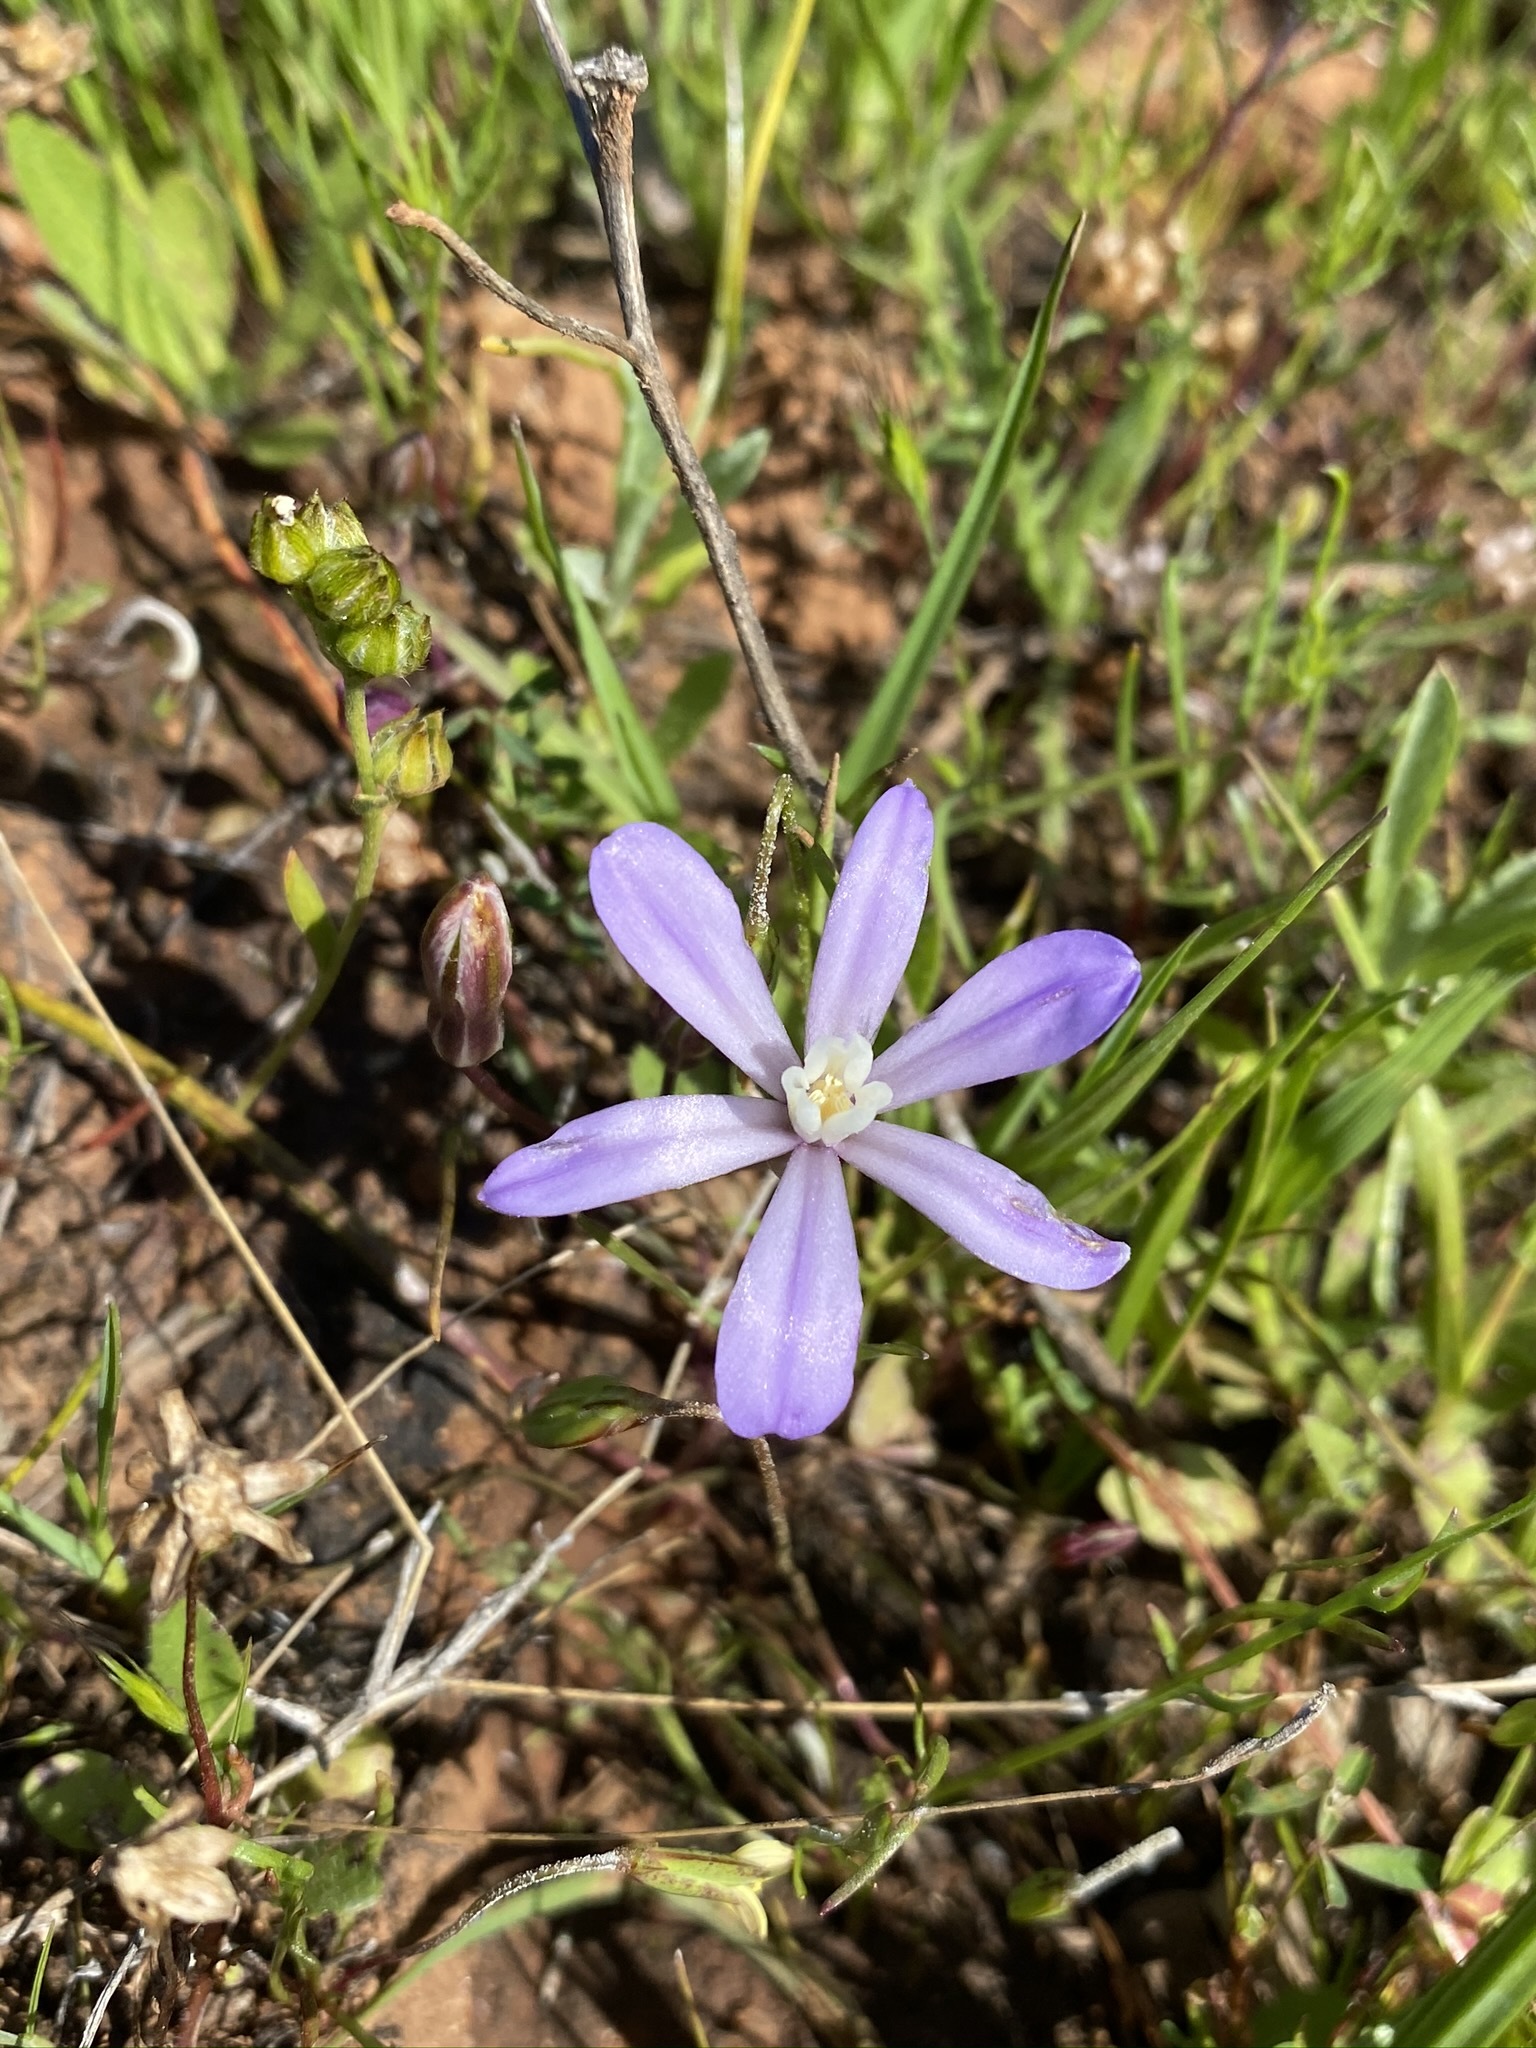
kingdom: Plantae
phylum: Tracheophyta
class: Liliopsida
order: Asparagales
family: Asparagaceae
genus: Brodiaea
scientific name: Brodiaea nana
